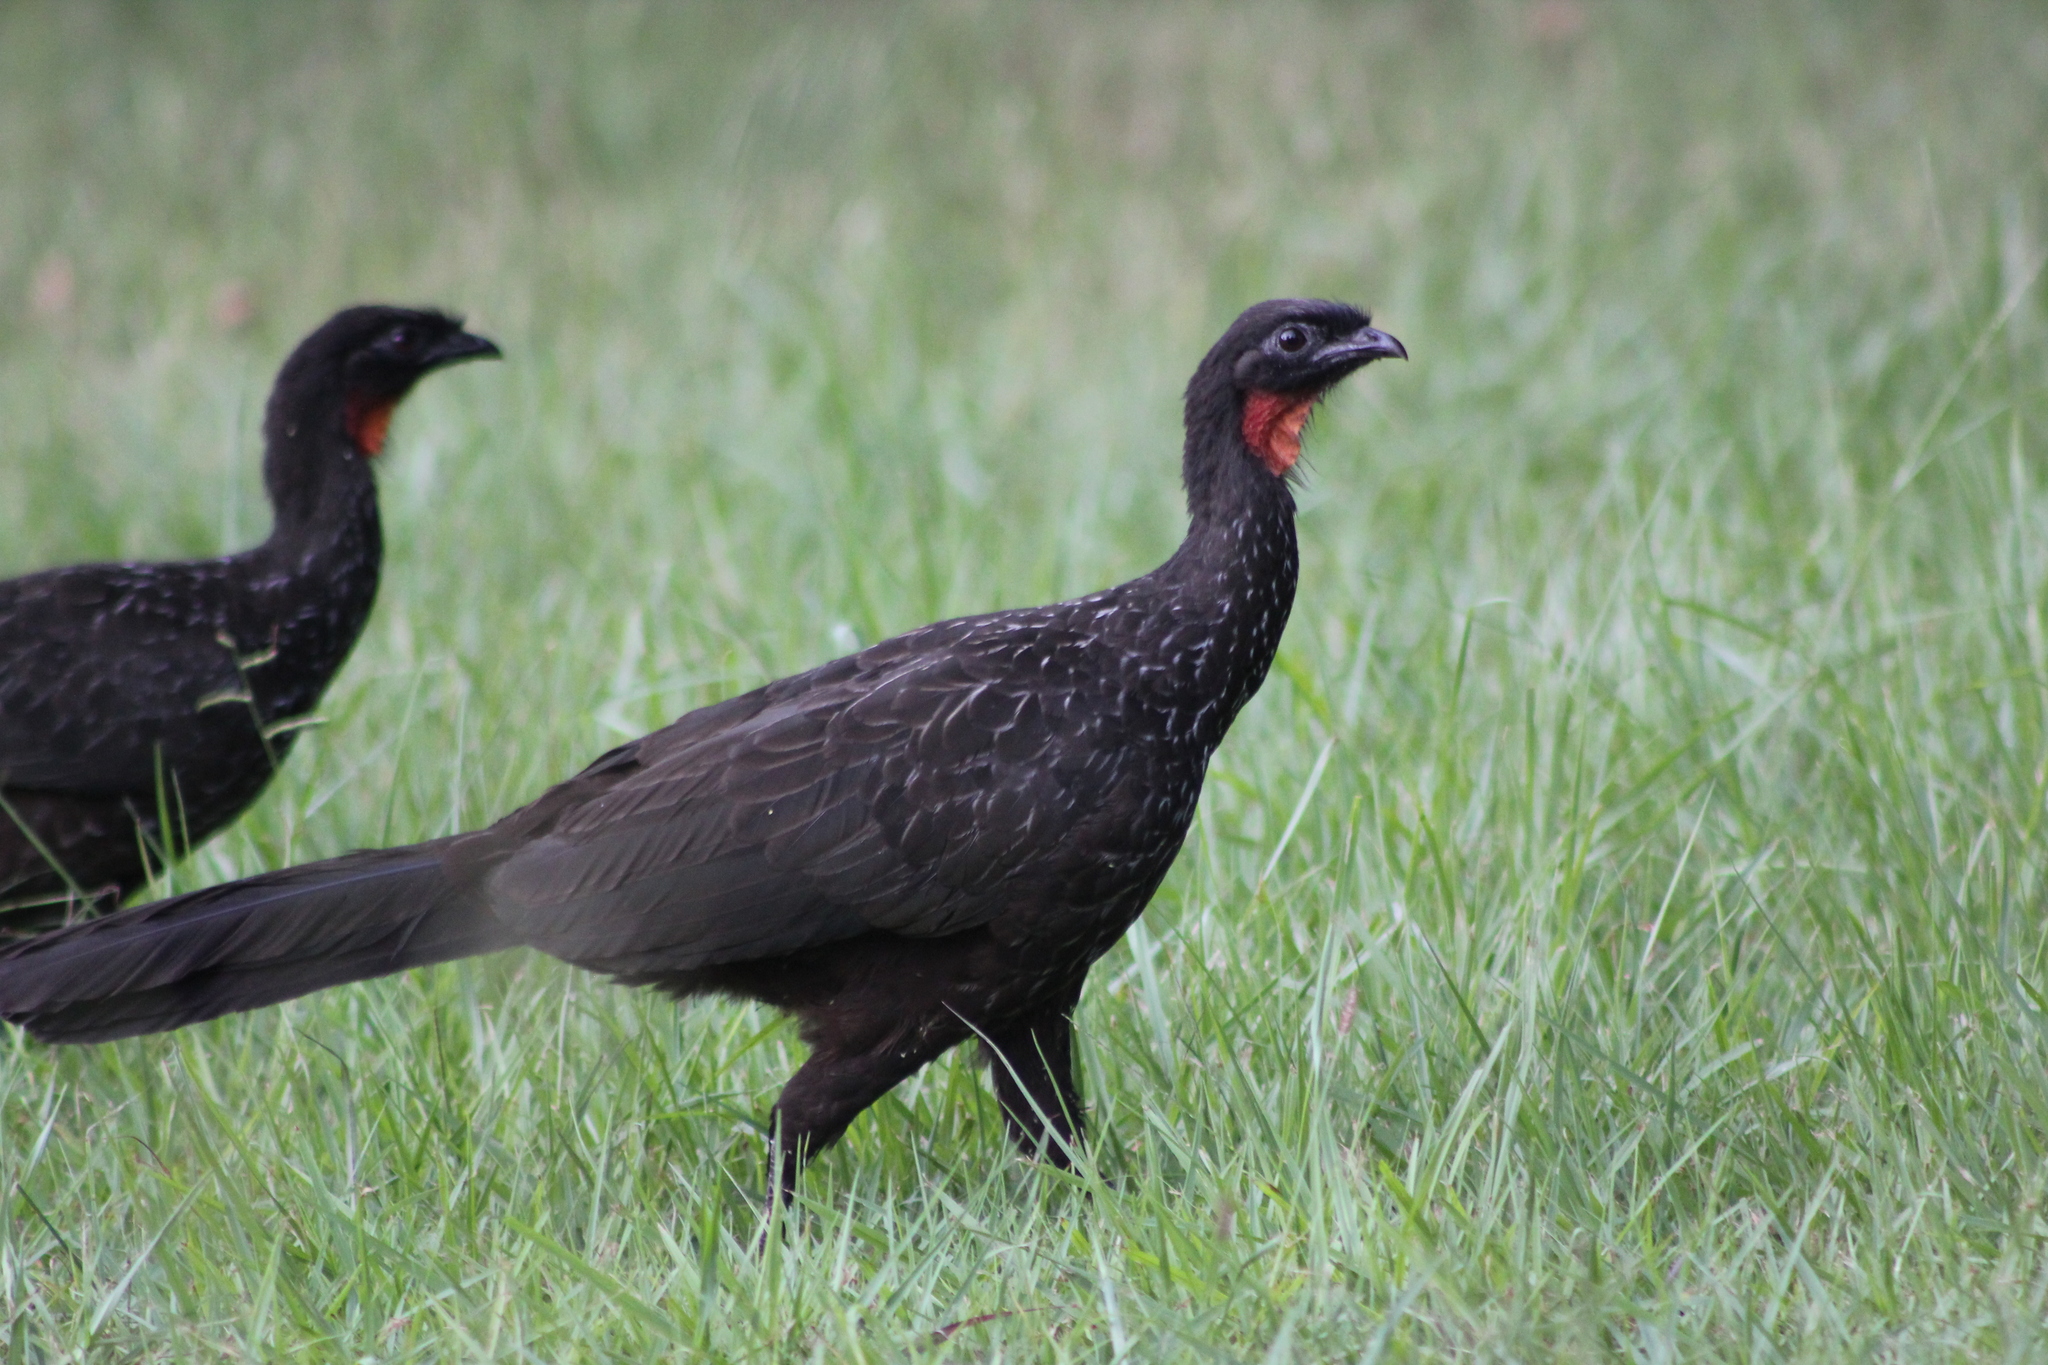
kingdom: Animalia
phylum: Chordata
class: Aves
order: Galliformes
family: Cracidae
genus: Penelope
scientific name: Penelope obscura
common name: Dusky-legged guan
